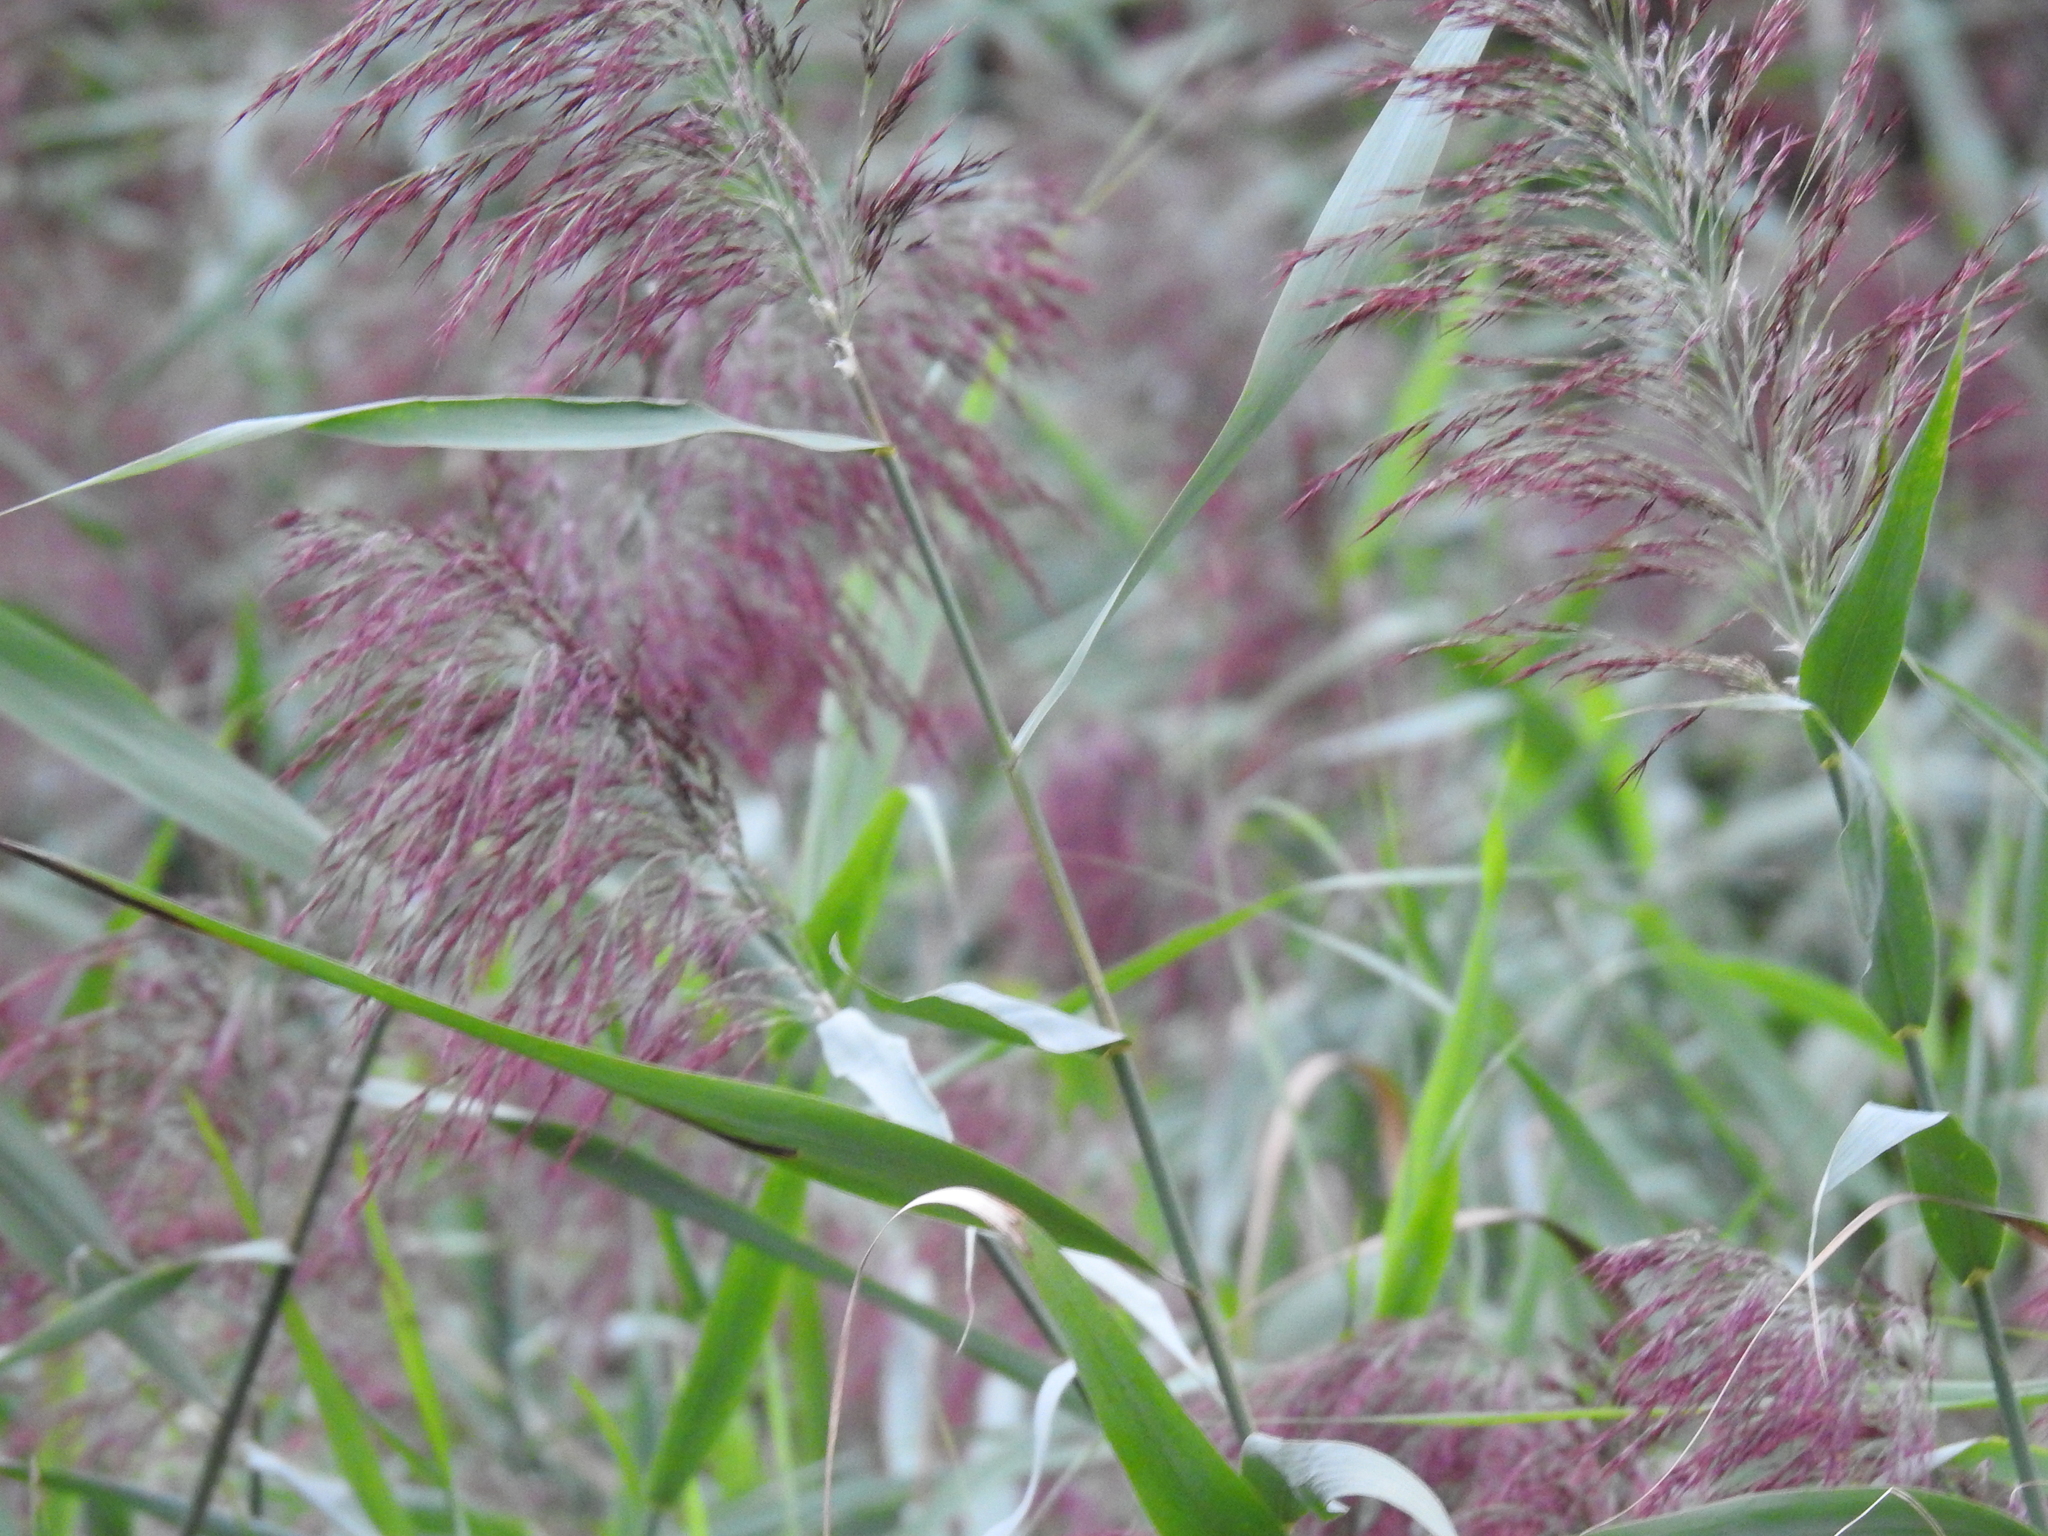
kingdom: Plantae
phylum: Tracheophyta
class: Liliopsida
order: Poales
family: Poaceae
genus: Phragmites
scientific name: Phragmites australis
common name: Common reed
